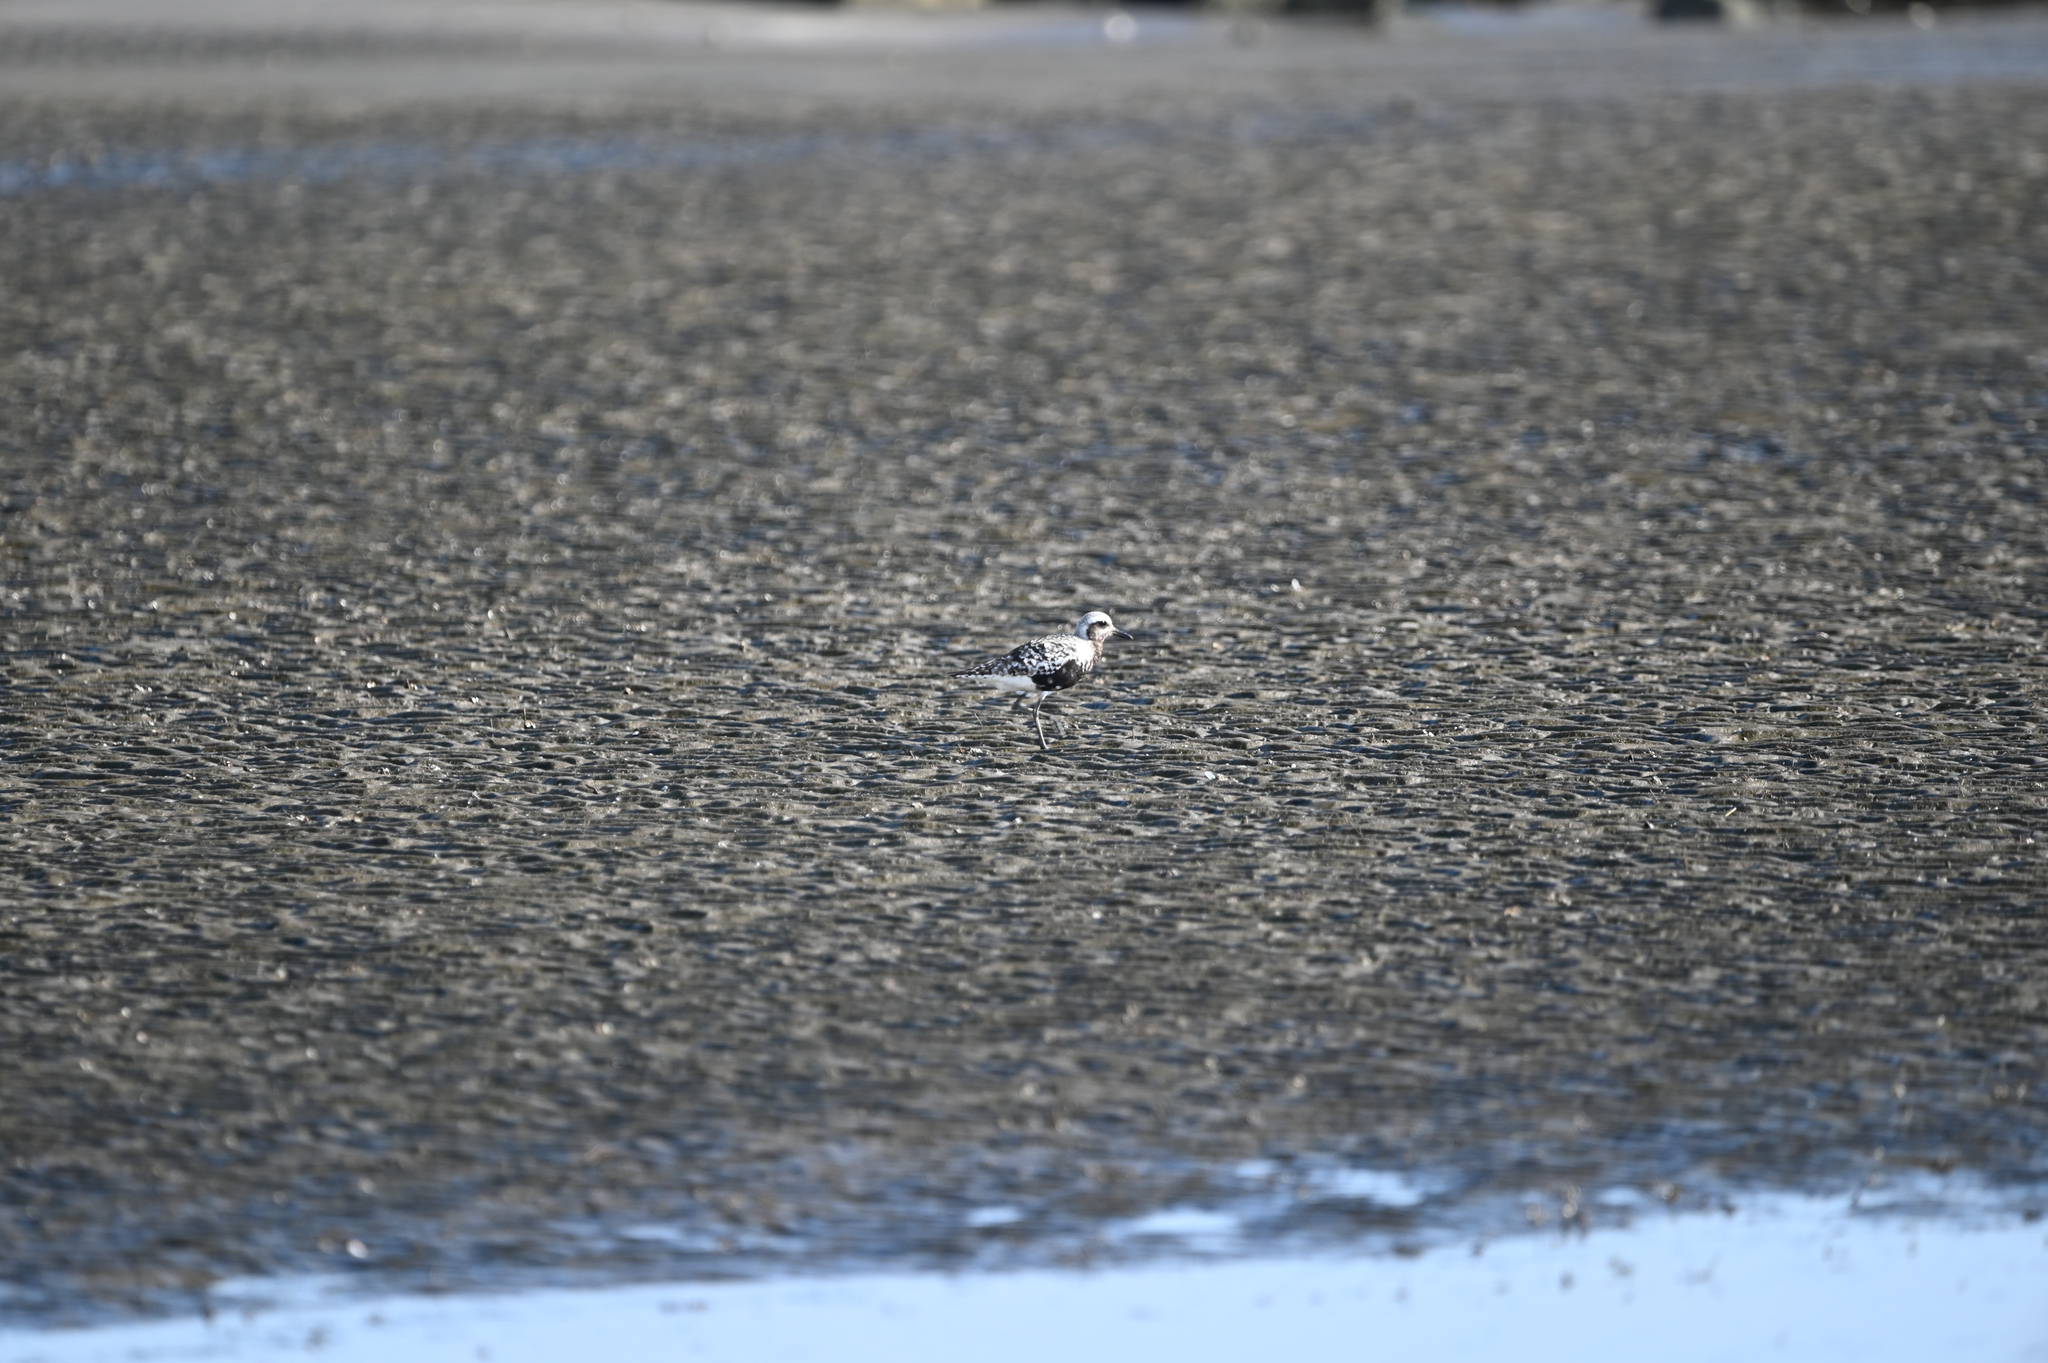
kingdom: Animalia
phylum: Chordata
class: Aves
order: Charadriiformes
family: Charadriidae
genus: Pluvialis
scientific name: Pluvialis squatarola
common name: Grey plover
